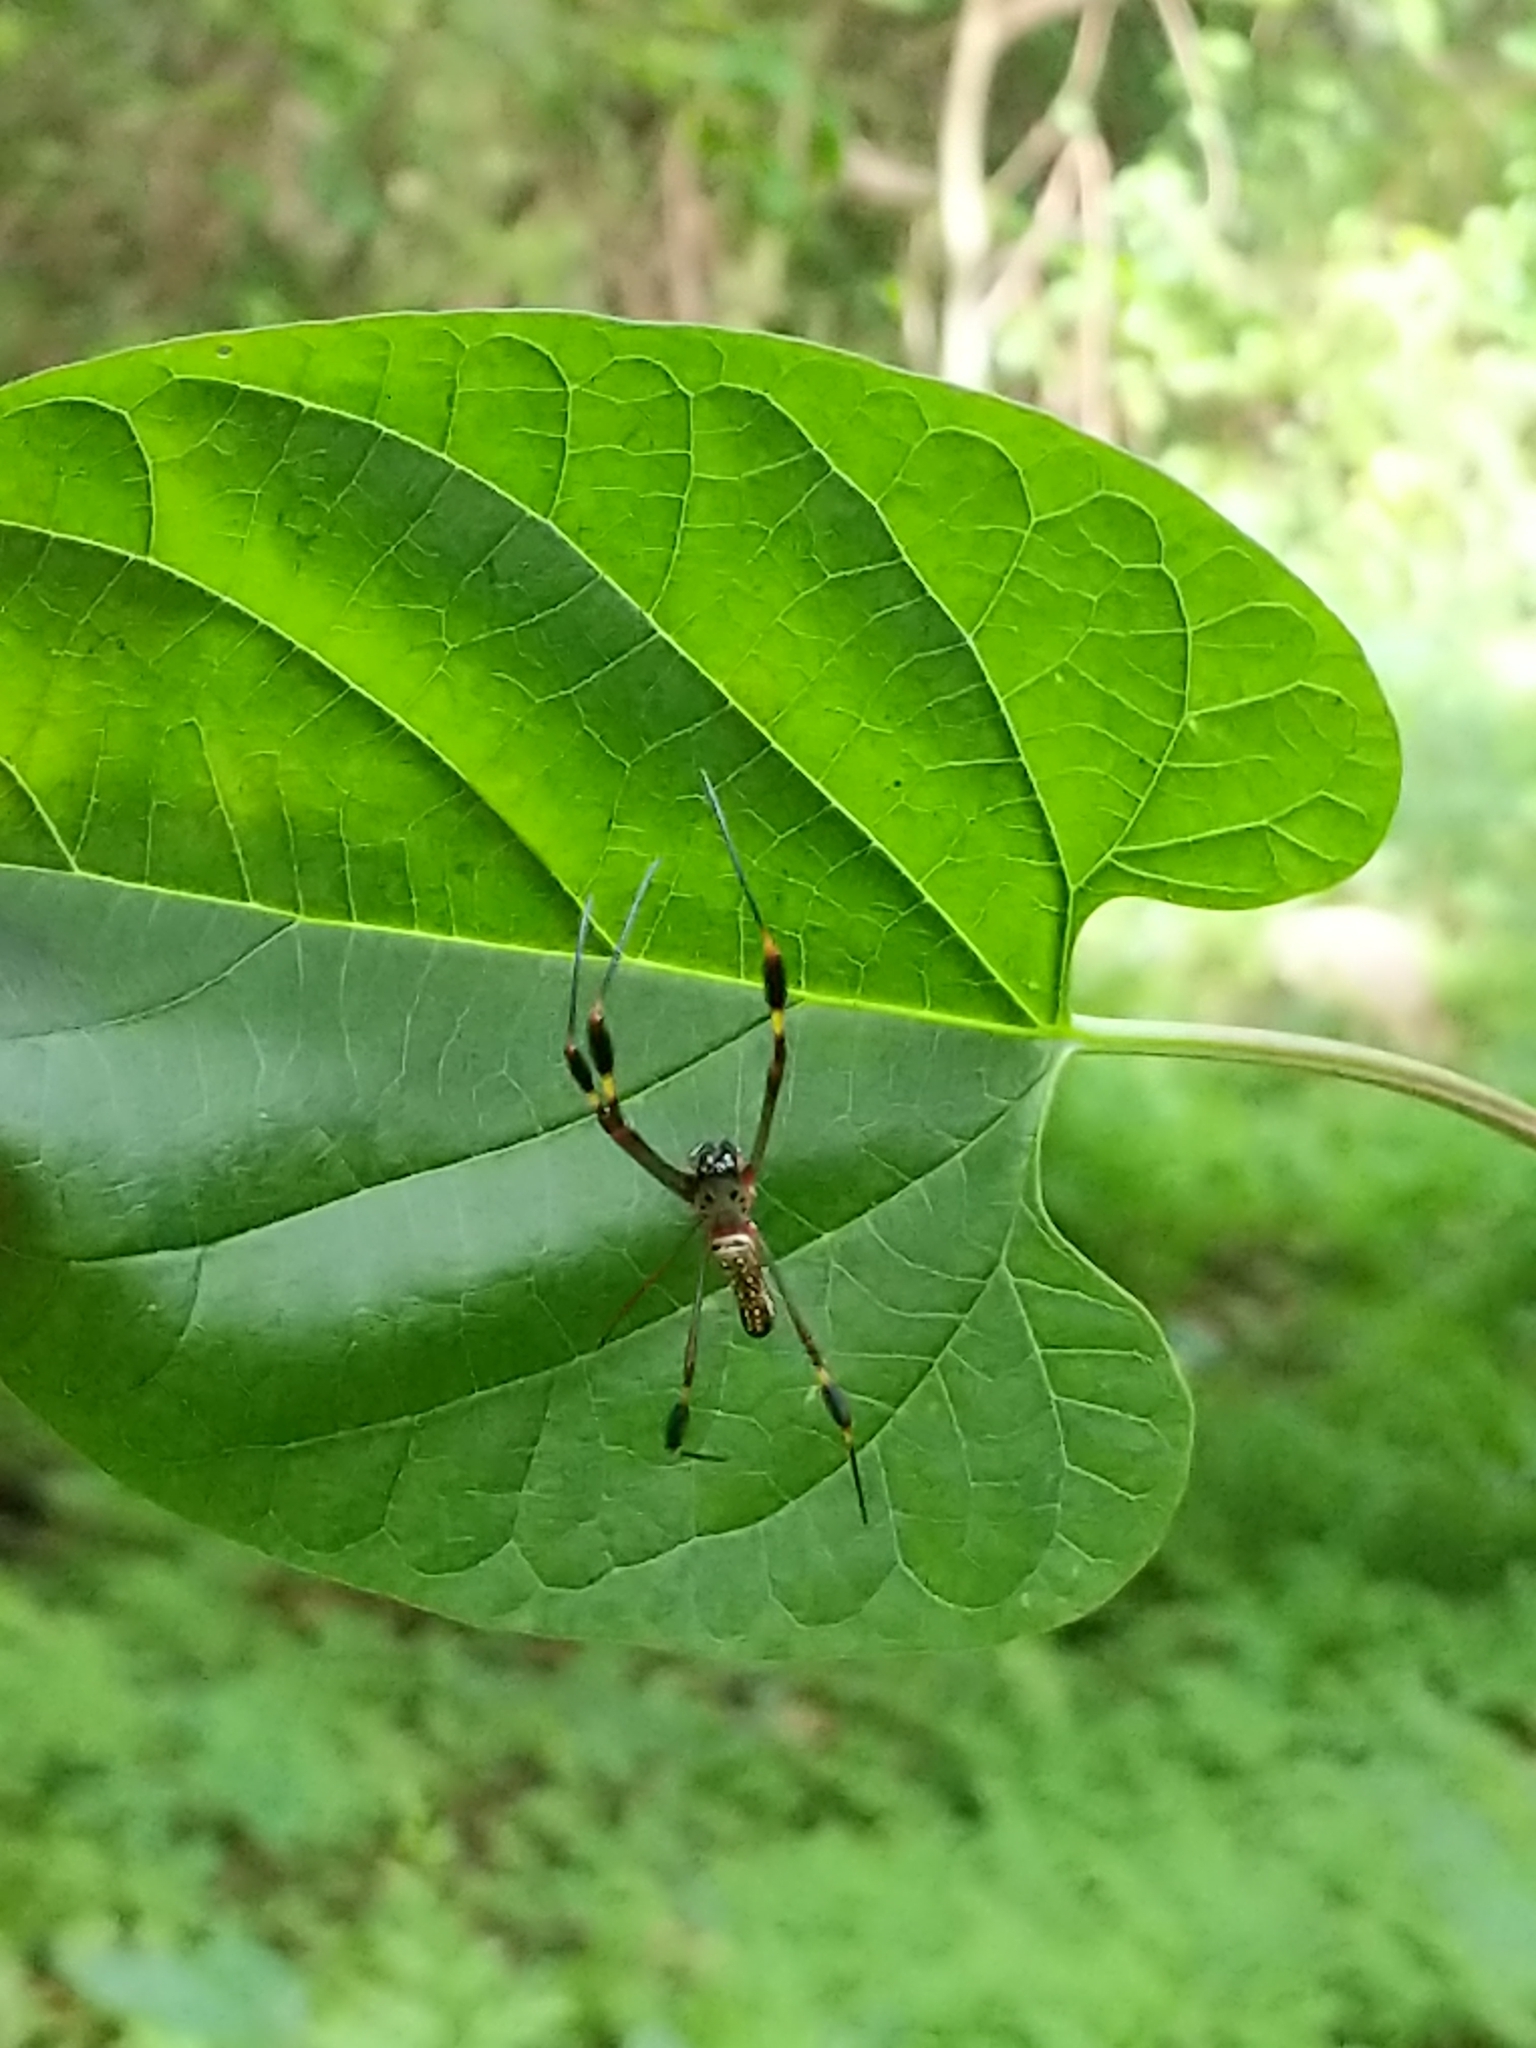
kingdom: Animalia
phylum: Arthropoda
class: Arachnida
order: Araneae
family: Araneidae
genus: Trichonephila
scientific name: Trichonephila clavipes
